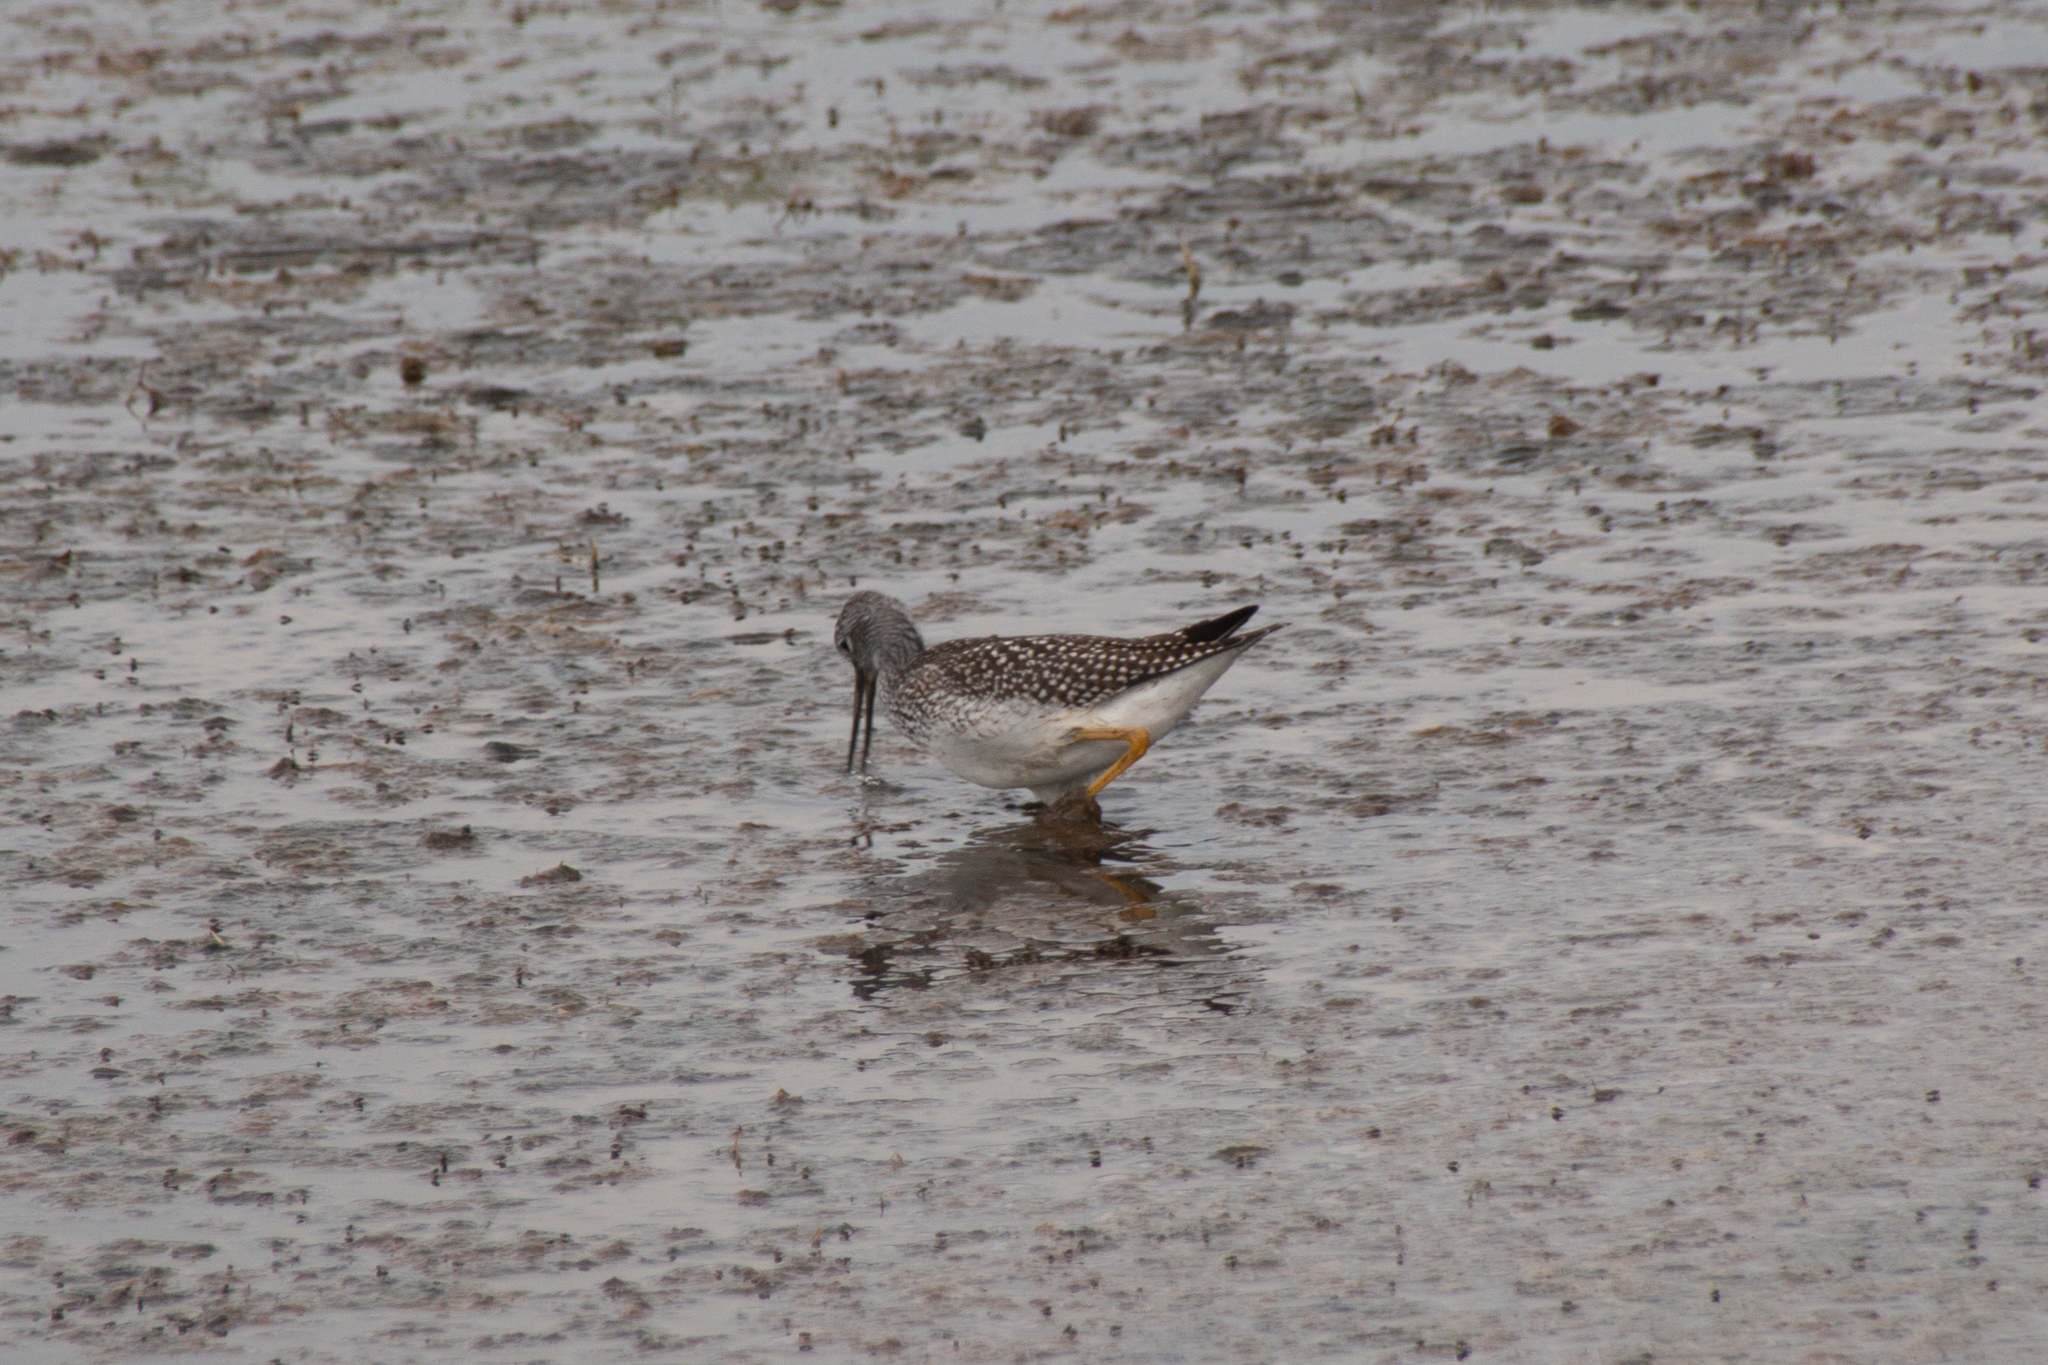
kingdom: Animalia
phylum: Chordata
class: Aves
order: Charadriiformes
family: Scolopacidae
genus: Tringa
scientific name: Tringa melanoleuca
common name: Greater yellowlegs
